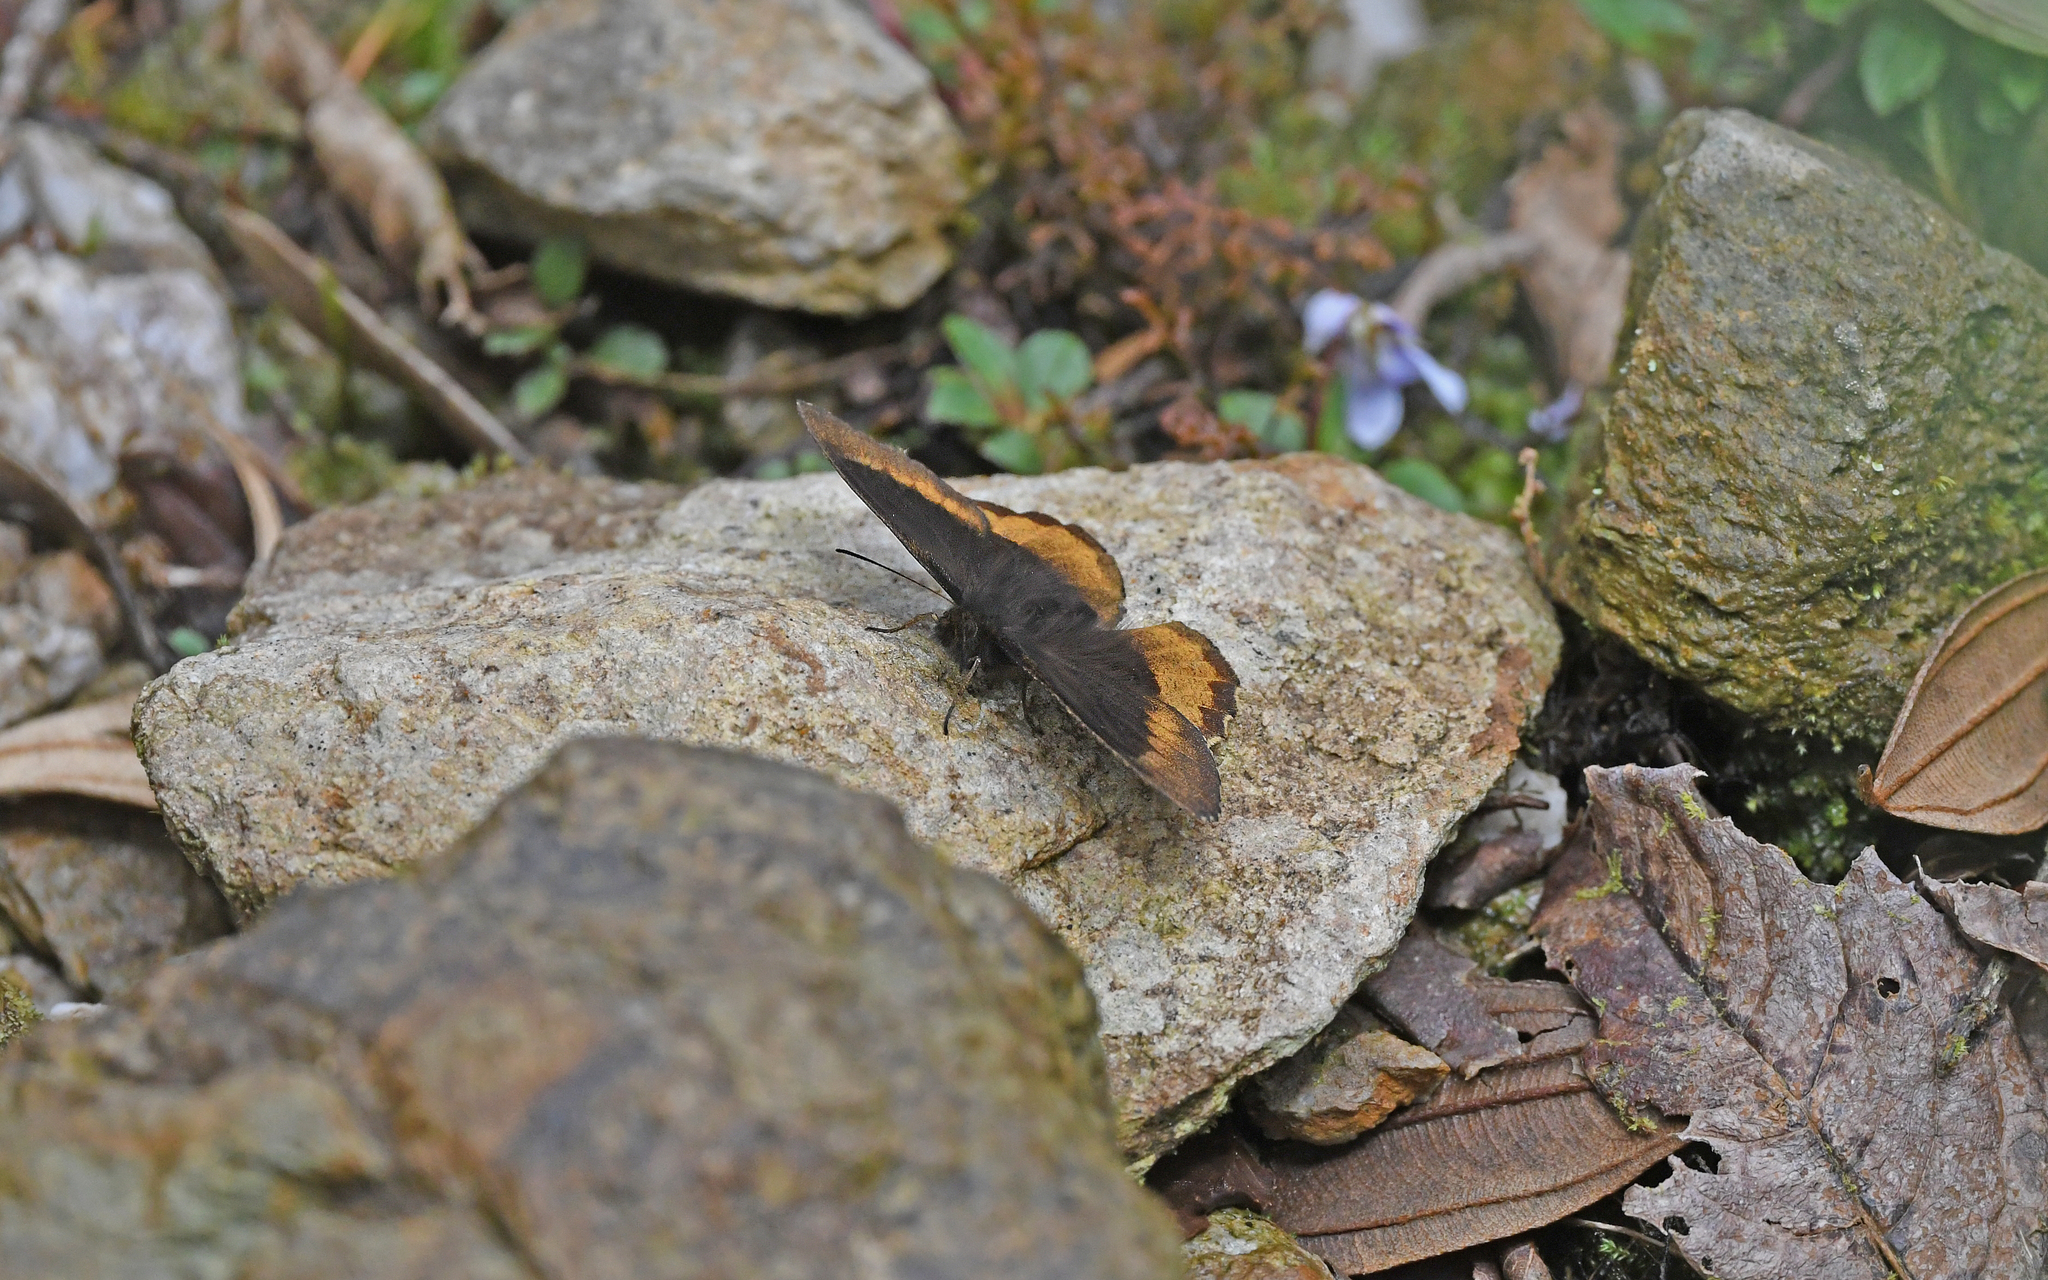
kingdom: Animalia
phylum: Arthropoda
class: Insecta
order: Lepidoptera
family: Nymphalidae
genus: Pedaliodes
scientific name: Pedaliodes
